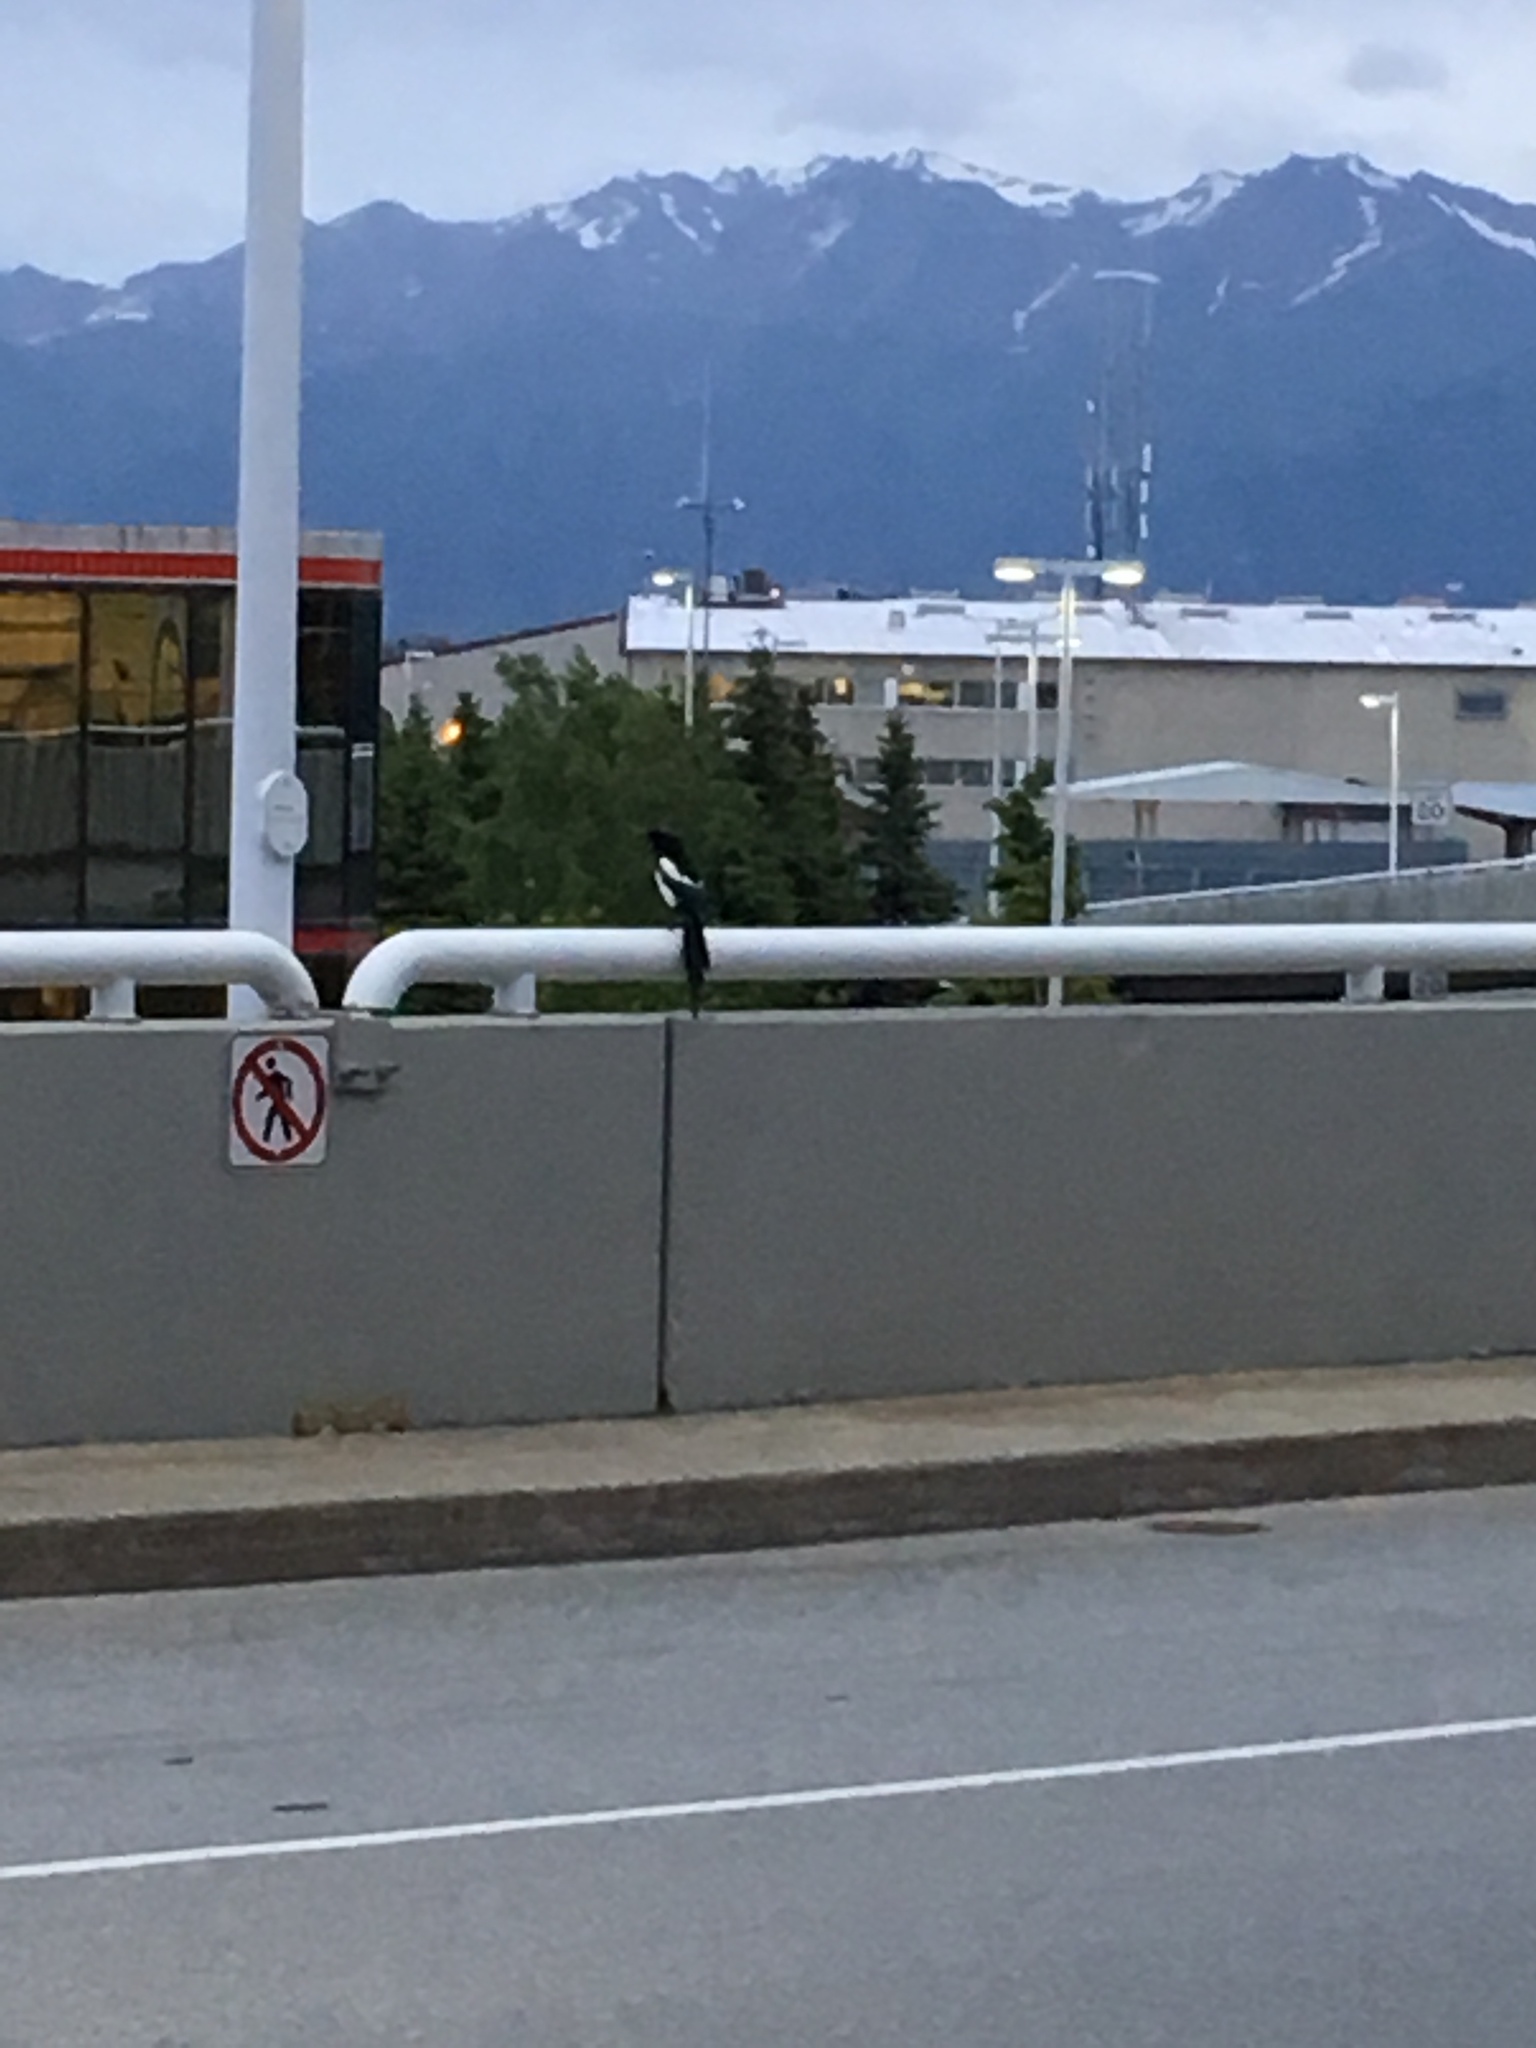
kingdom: Animalia
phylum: Chordata
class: Aves
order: Passeriformes
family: Corvidae
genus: Pica
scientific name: Pica hudsonia
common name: Black-billed magpie
